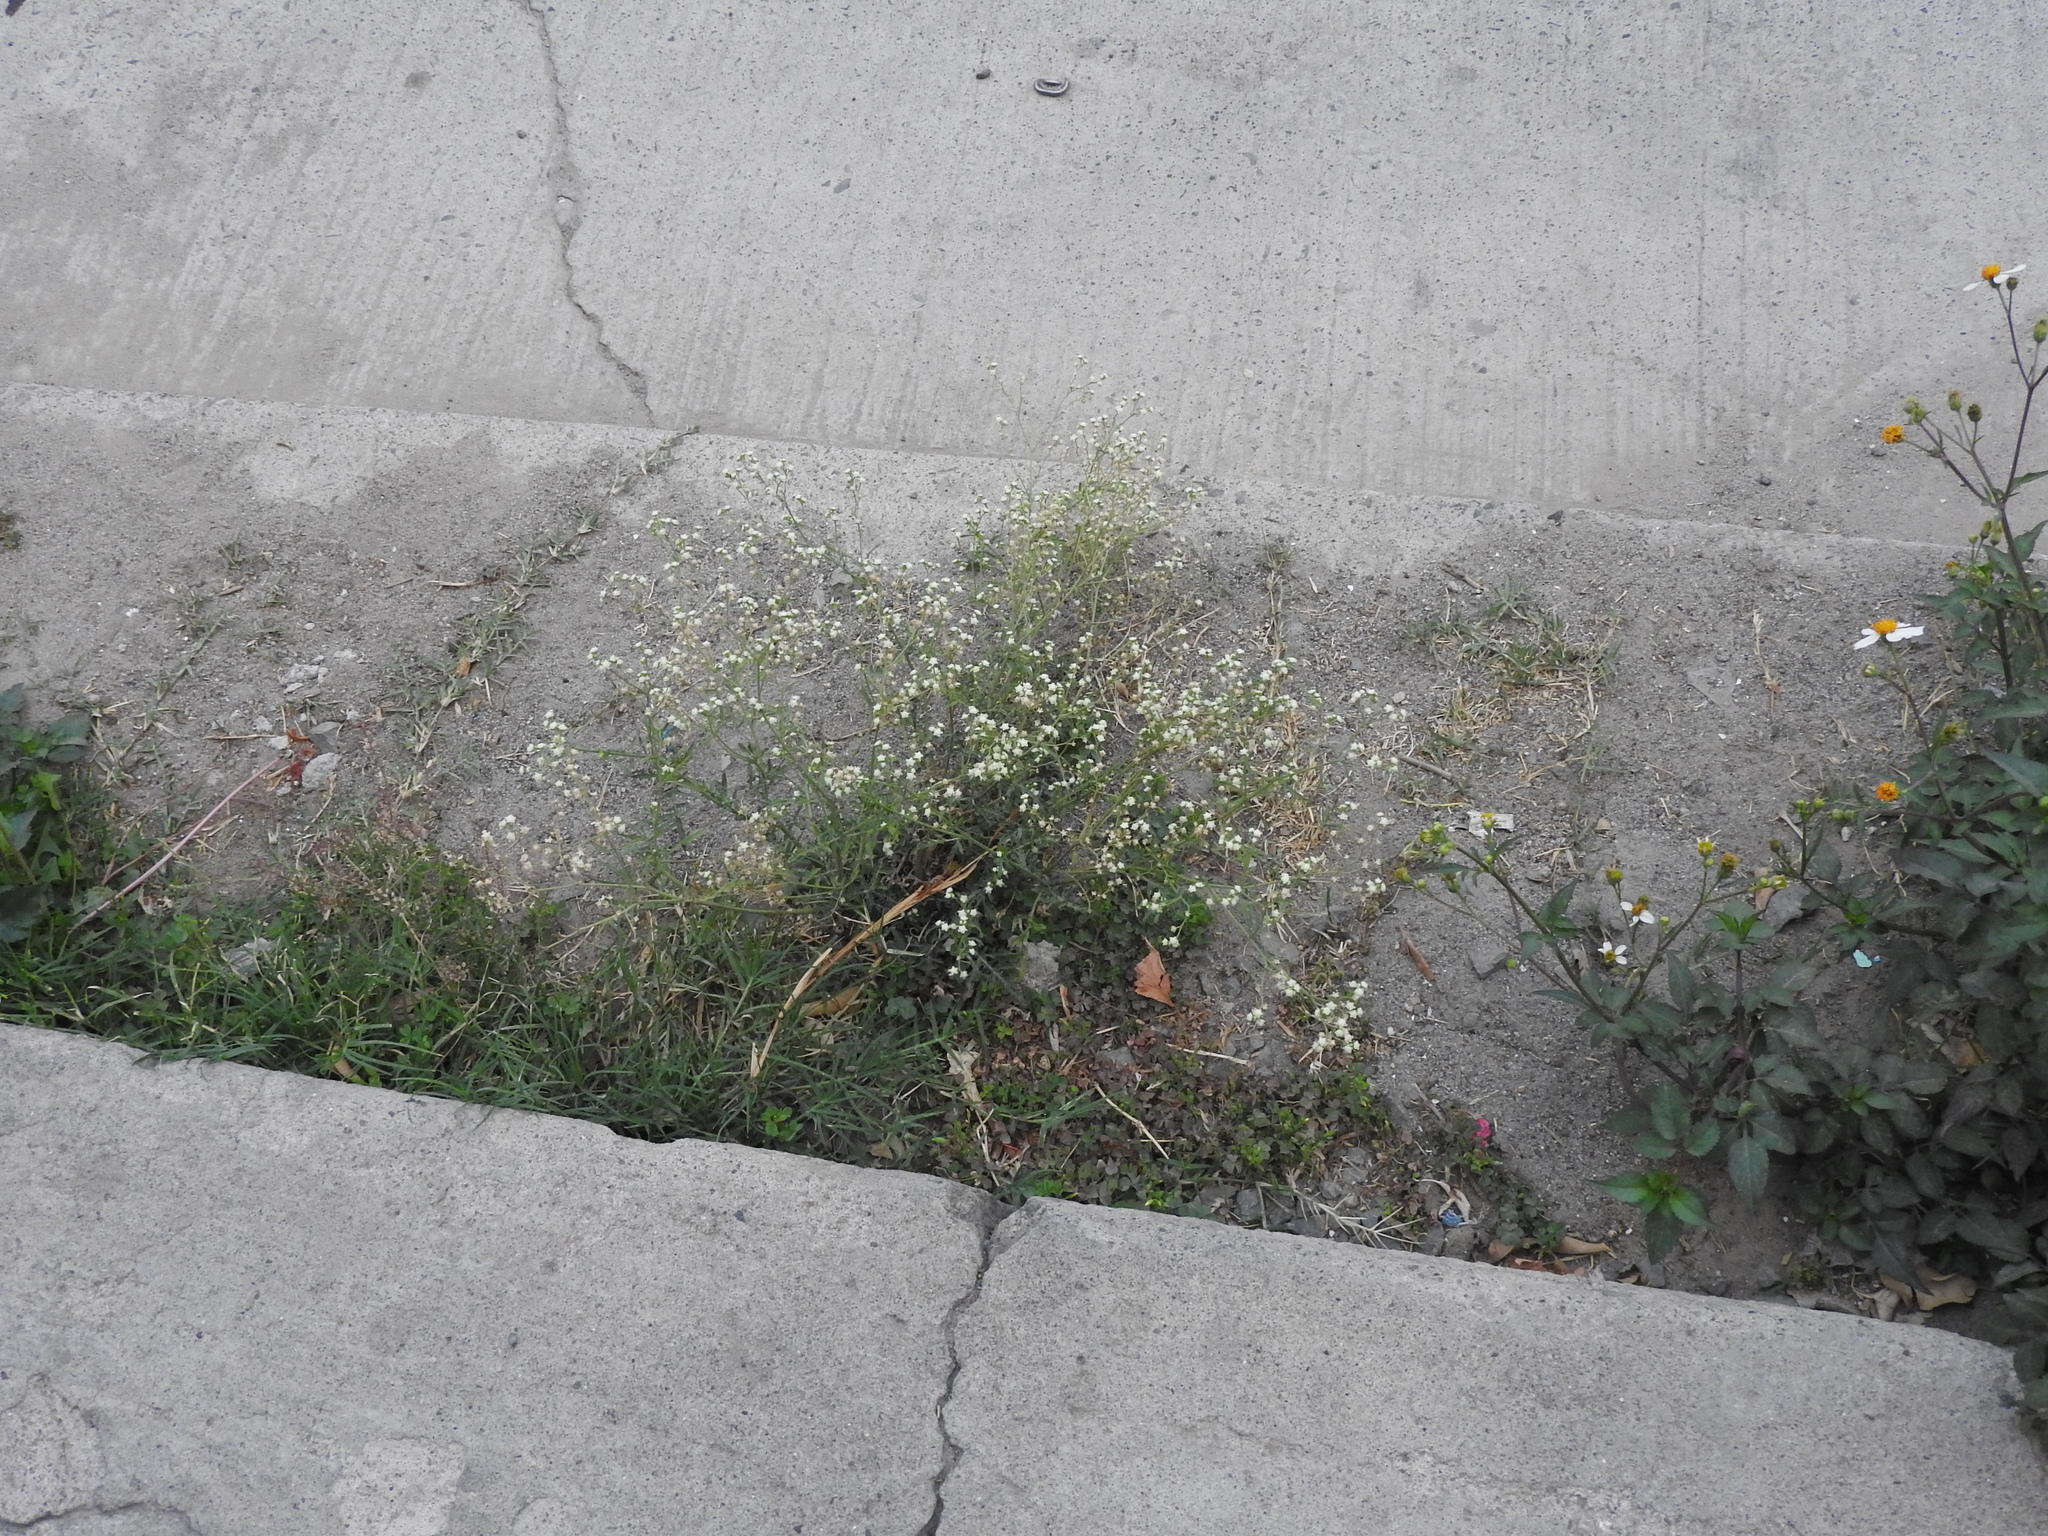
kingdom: Plantae
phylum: Tracheophyta
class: Magnoliopsida
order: Asterales
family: Asteraceae
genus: Parthenium
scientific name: Parthenium hysterophorus
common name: Santa maria feverfew
